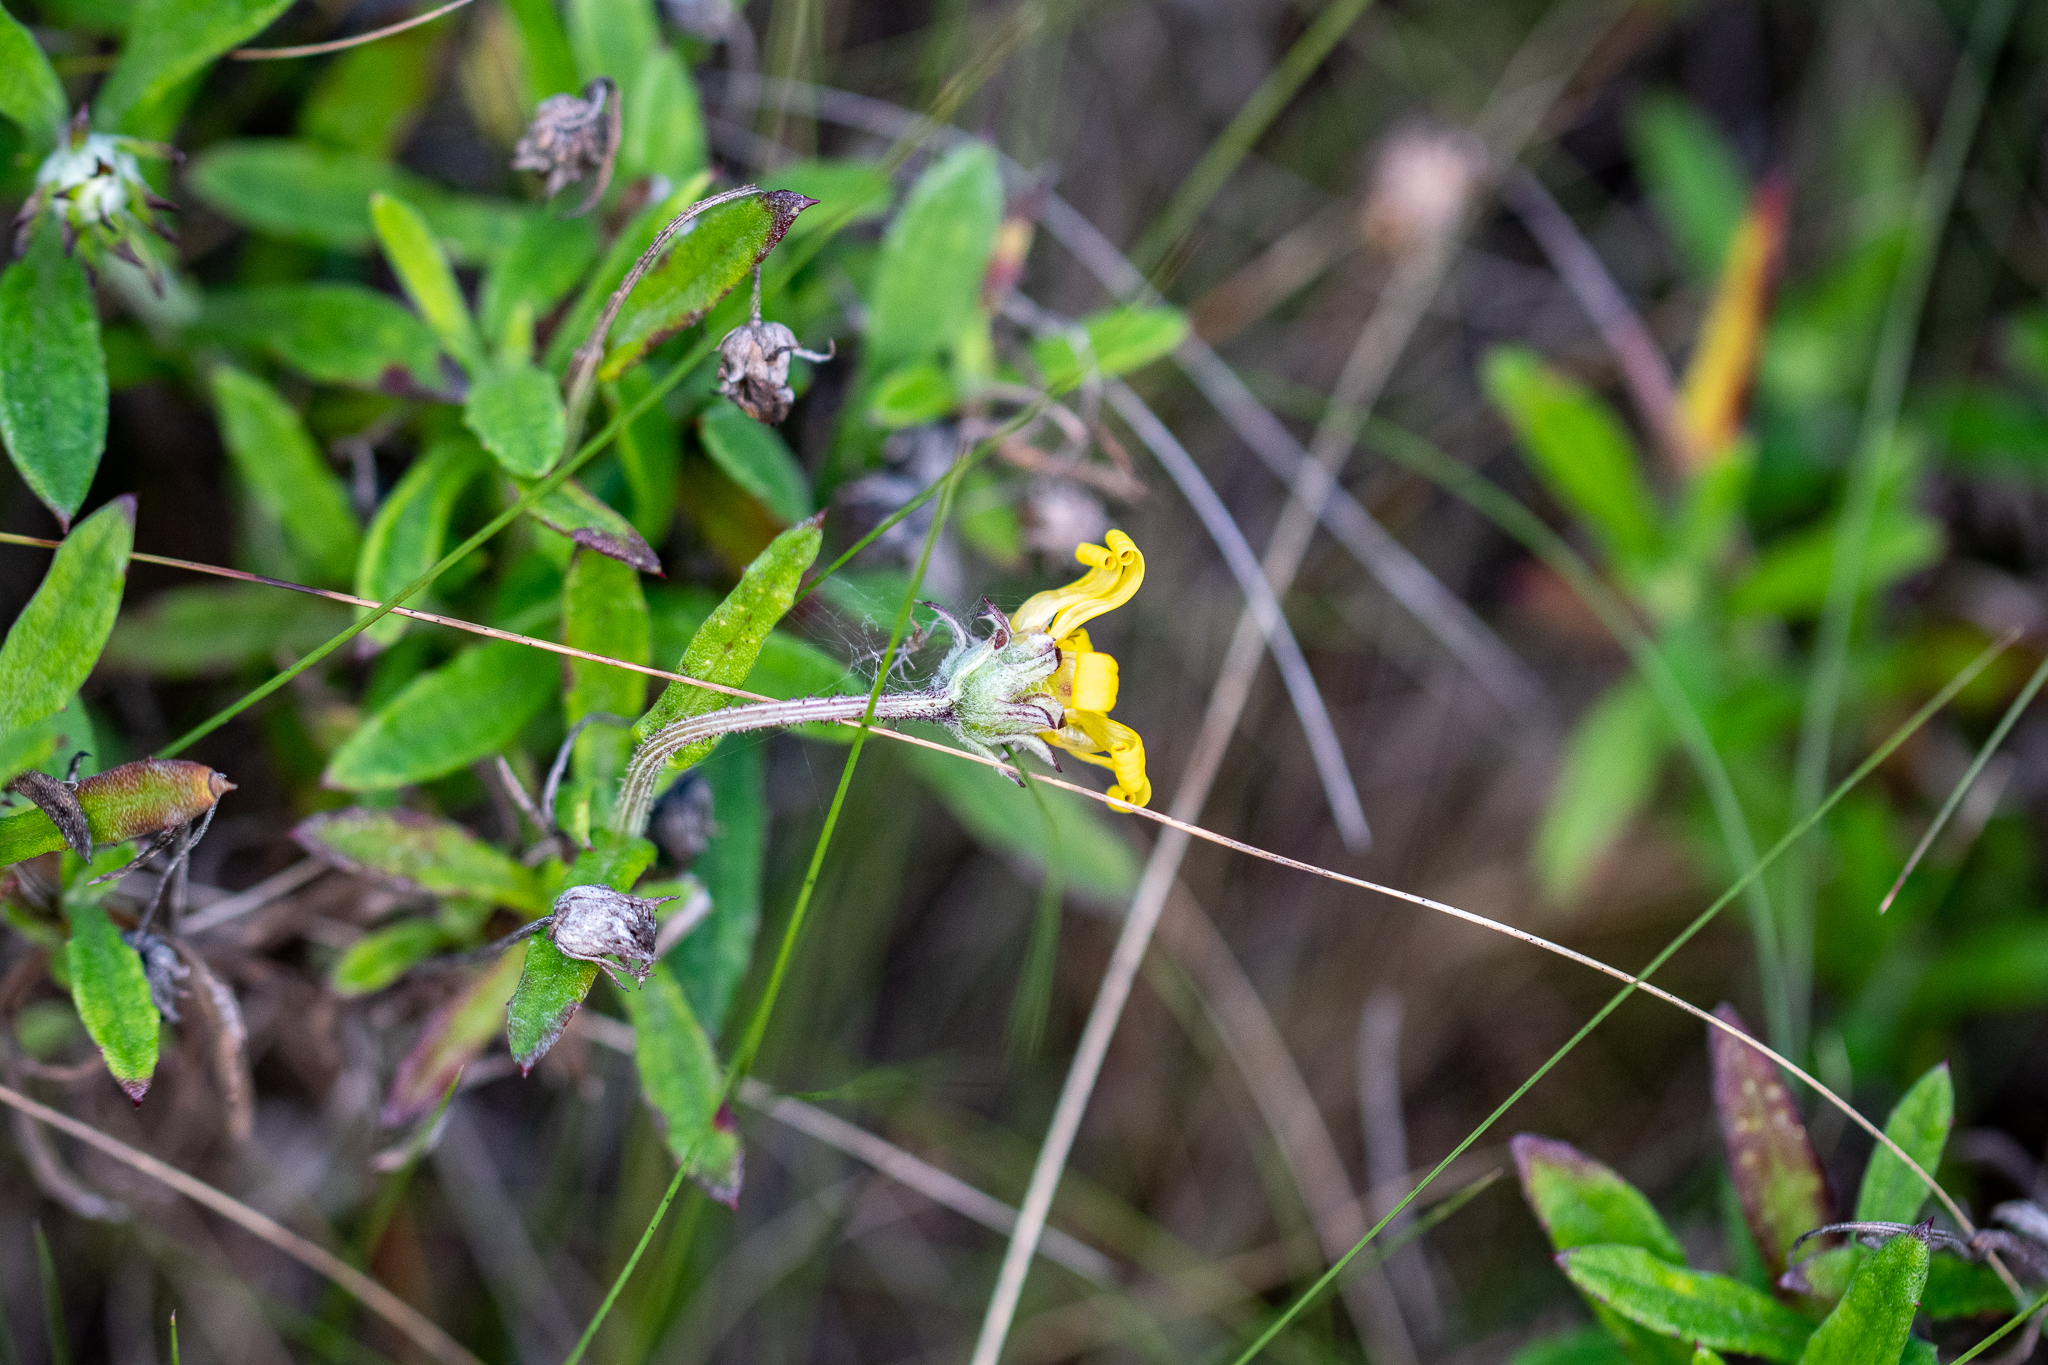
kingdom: Plantae
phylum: Tracheophyta
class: Magnoliopsida
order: Asterales
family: Asteraceae
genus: Arctotis
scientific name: Arctotis scabra
